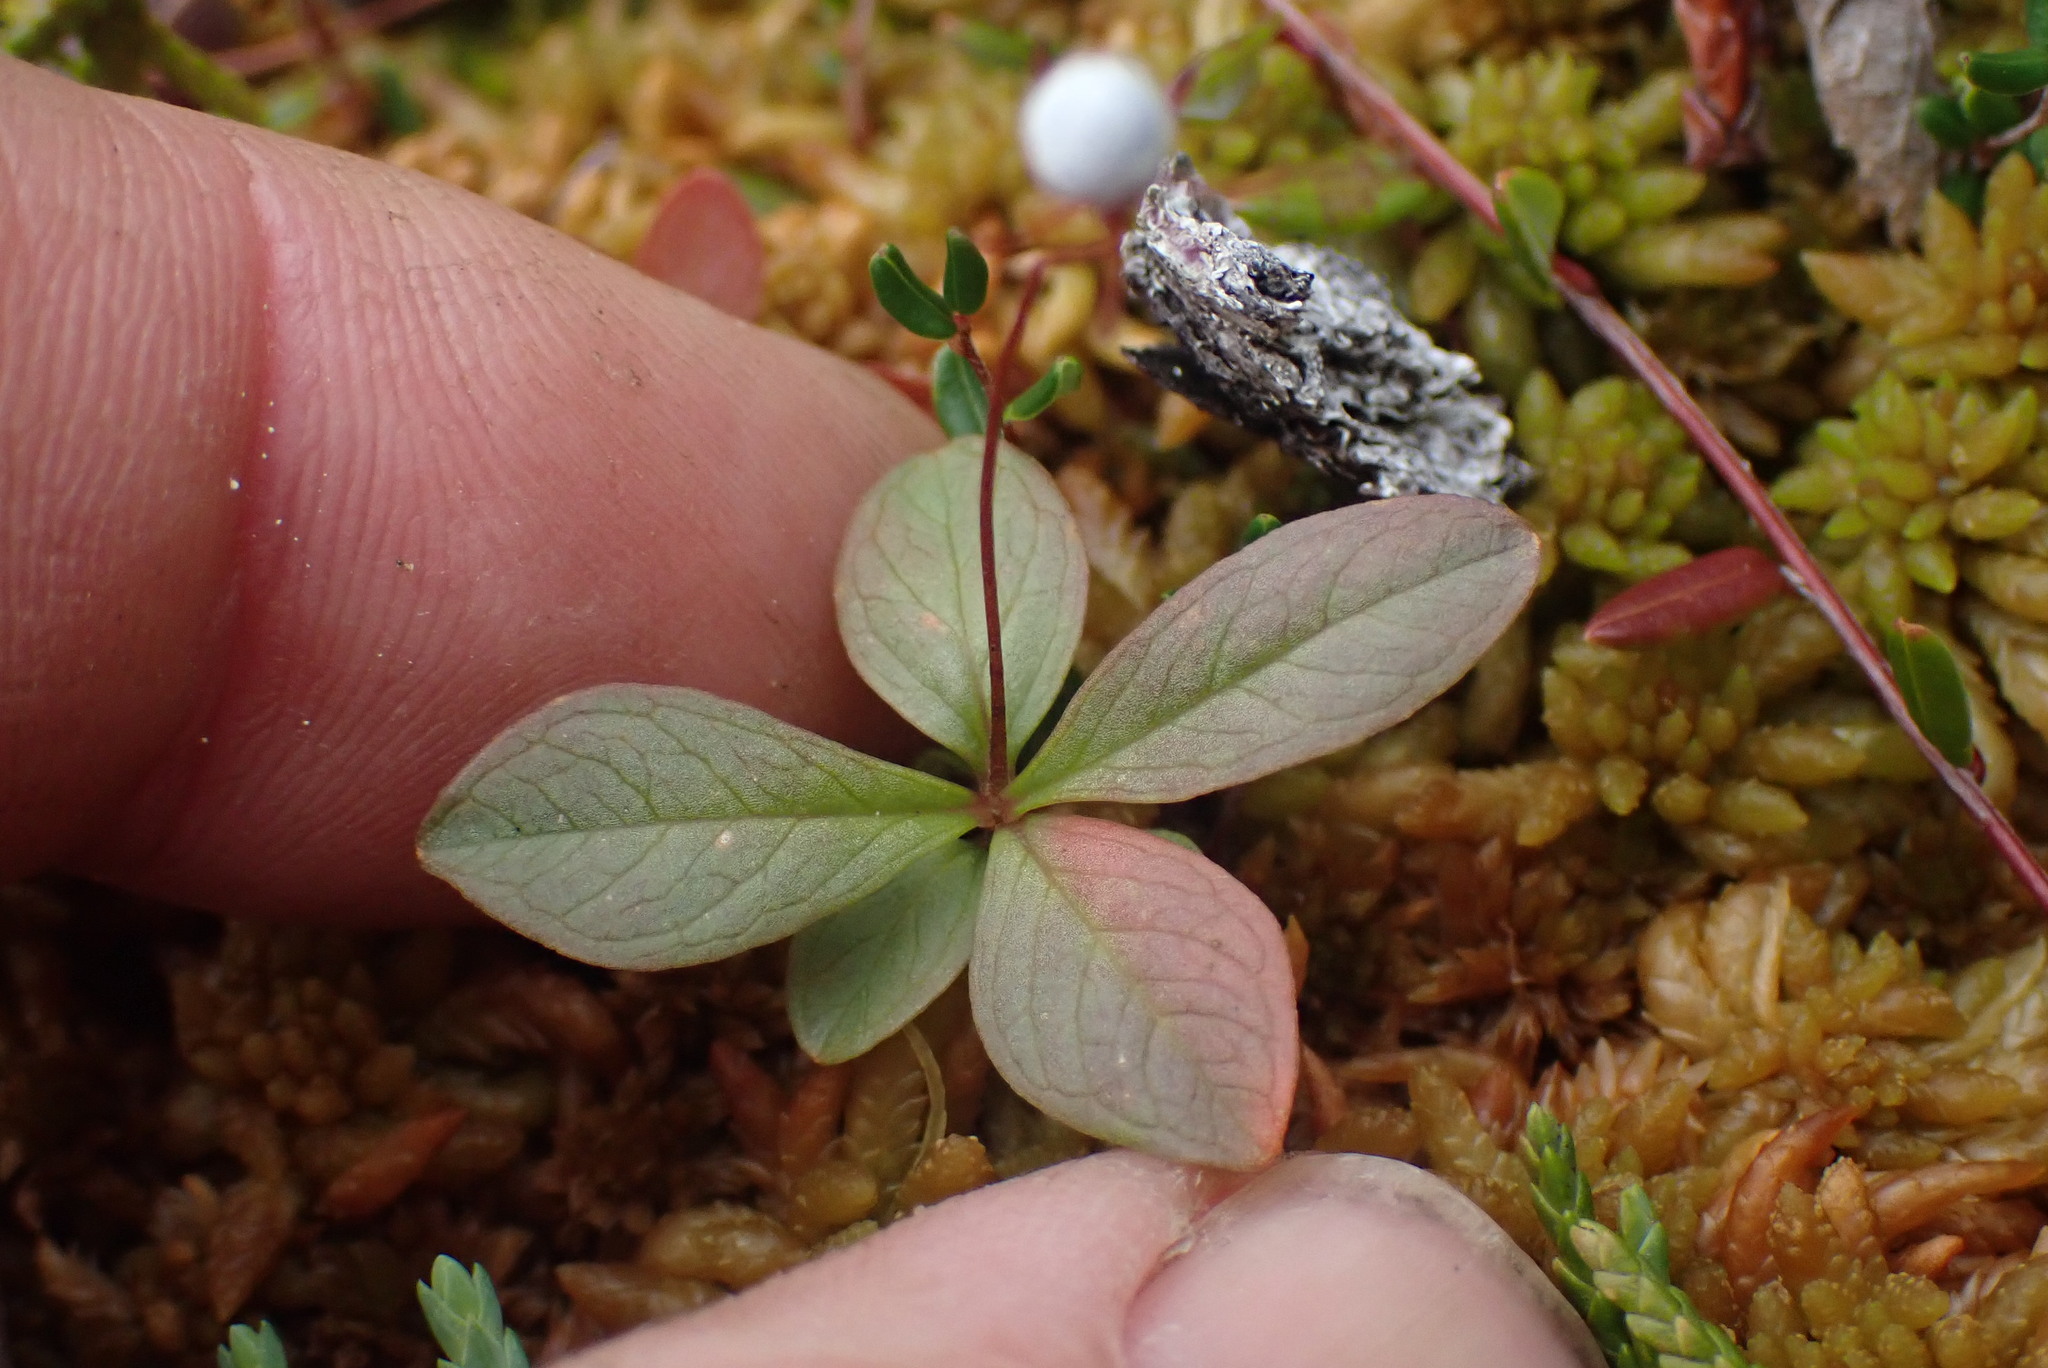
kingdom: Plantae
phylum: Tracheophyta
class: Magnoliopsida
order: Ericales
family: Primulaceae
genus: Lysimachia
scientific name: Lysimachia europaea
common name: Arctic starflower
